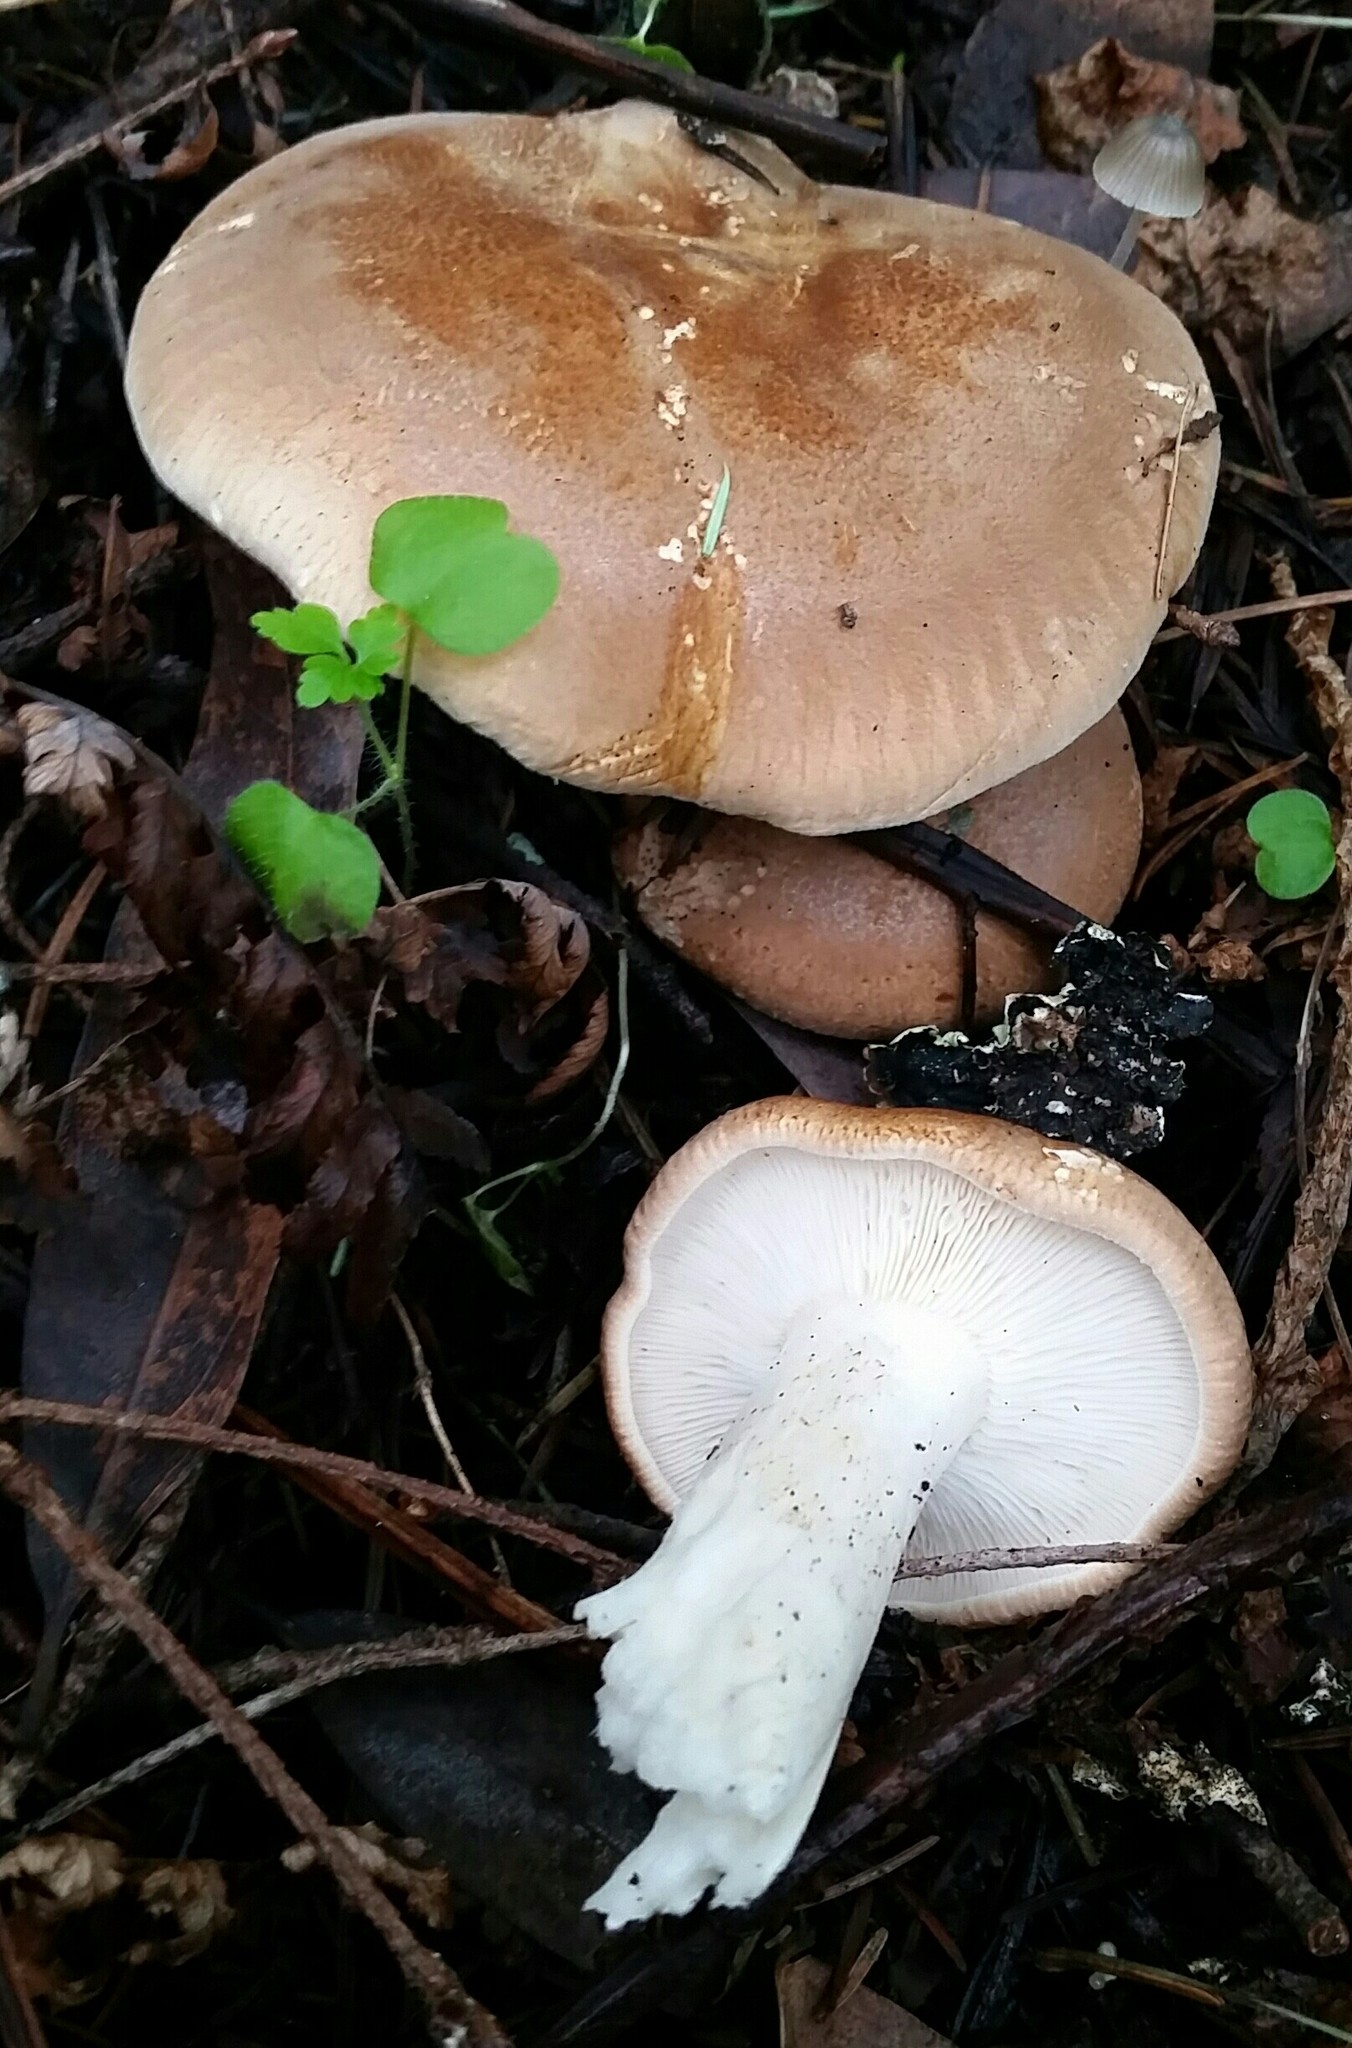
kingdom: Fungi
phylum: Basidiomycota
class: Agaricomycetes
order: Agaricales
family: Tricholomataceae
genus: Leucopaxillus
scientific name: Leucopaxillus gentianeus
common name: Bitter funnel
